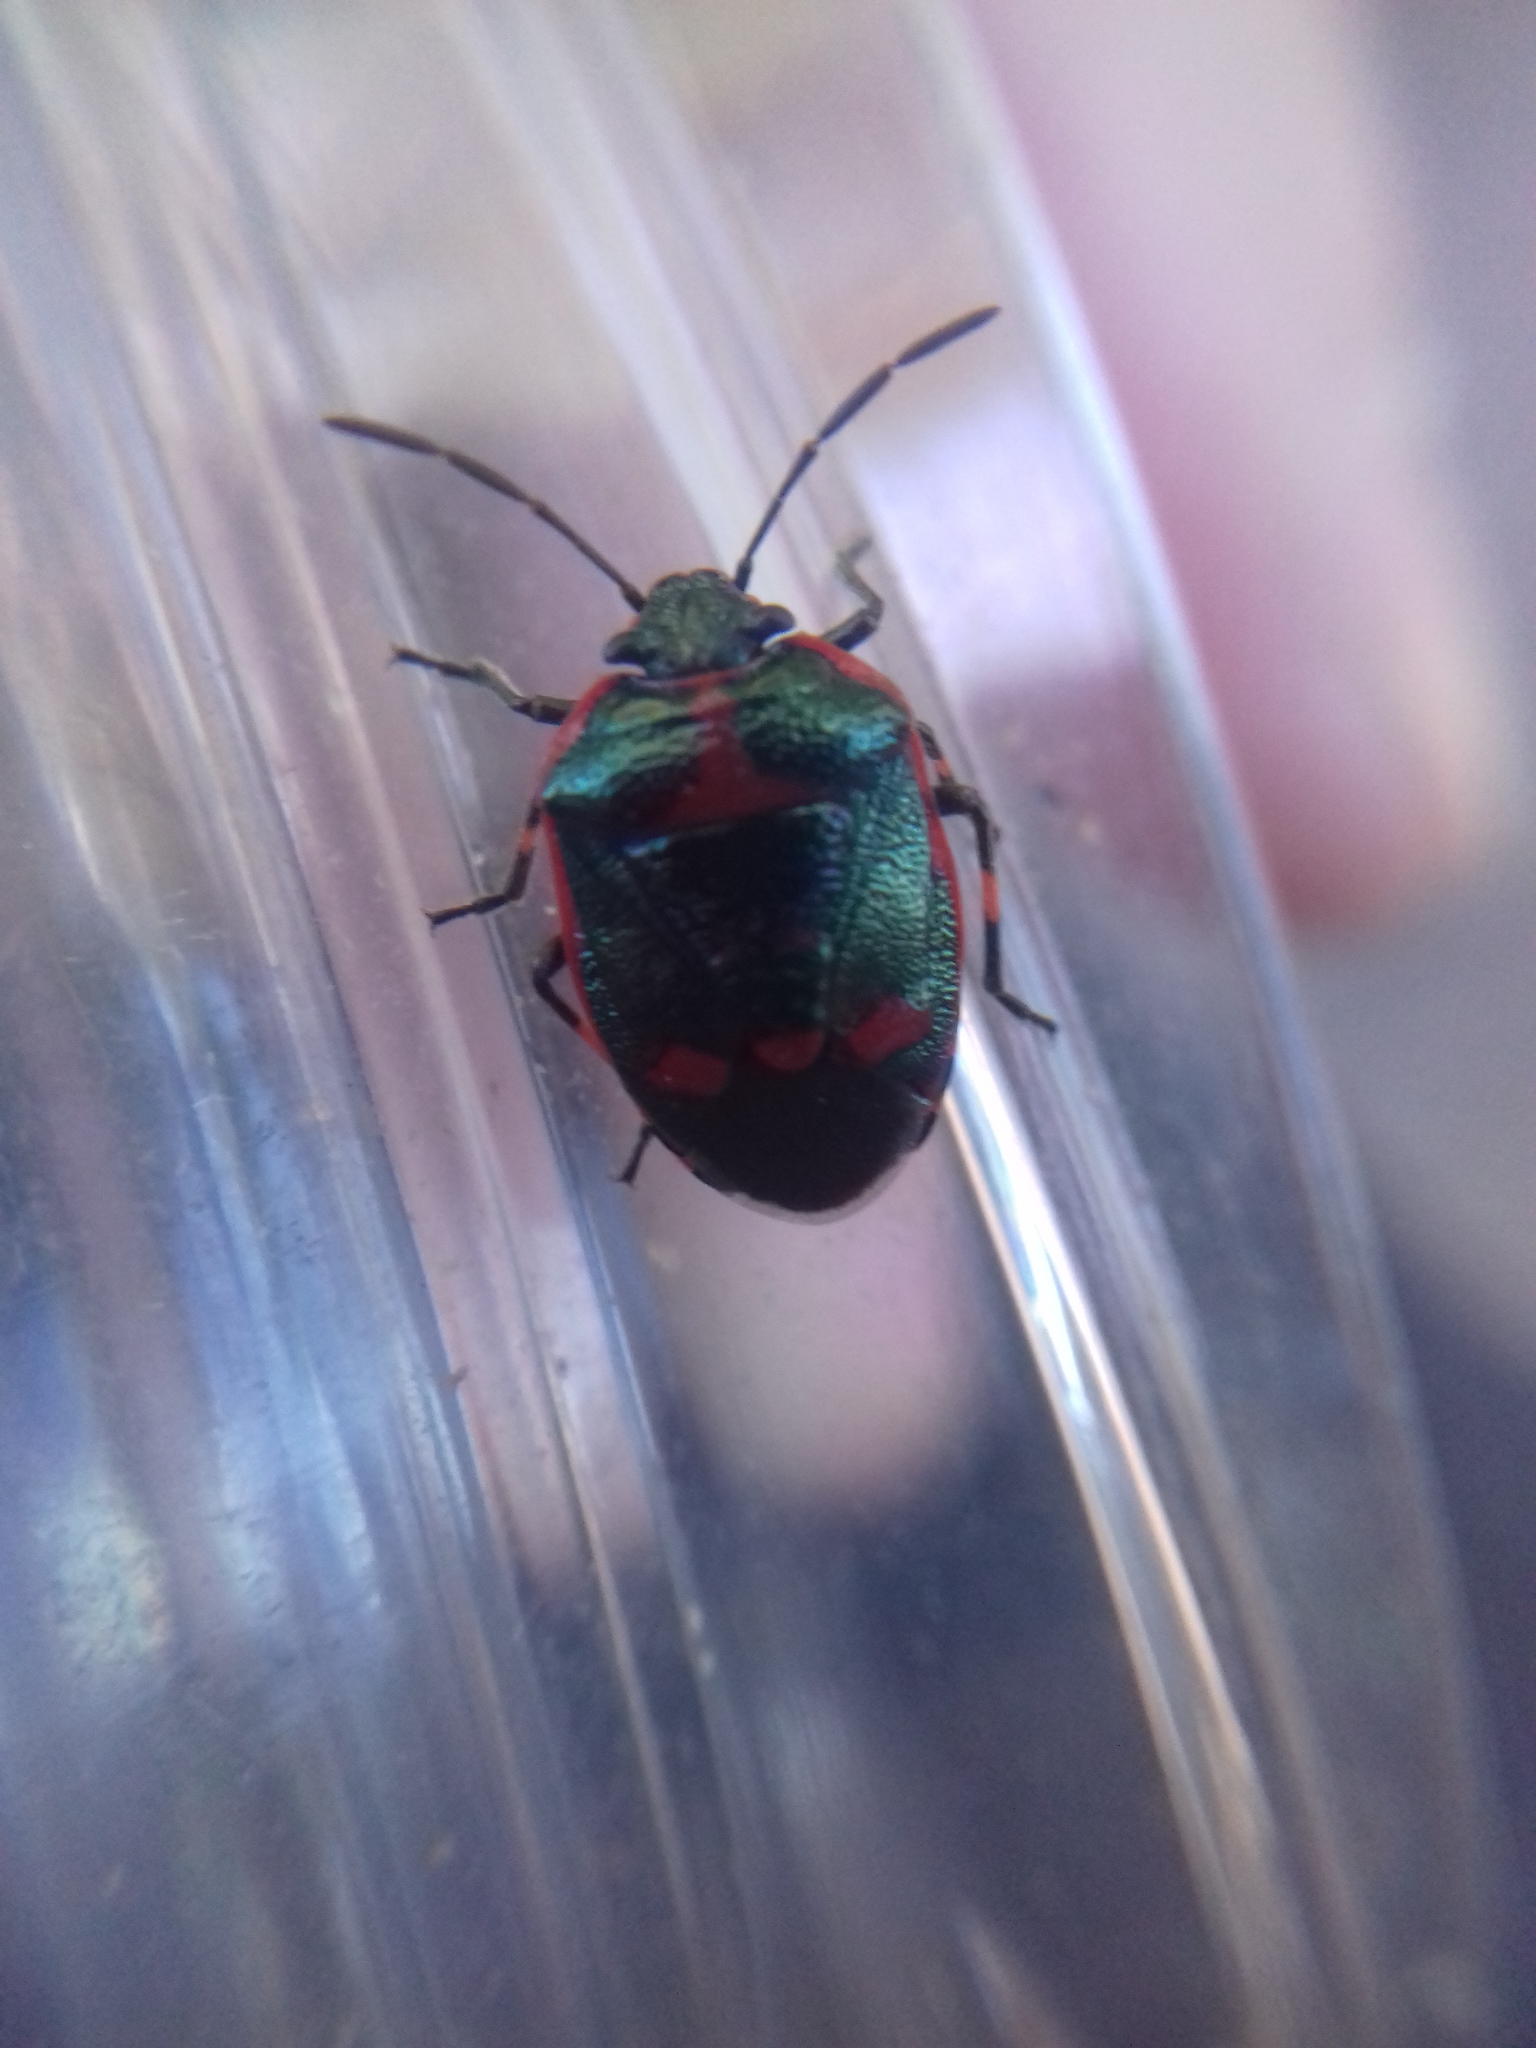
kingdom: Animalia
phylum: Arthropoda
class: Insecta
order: Hemiptera
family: Pentatomidae
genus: Eurydema
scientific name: Eurydema oleracea
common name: Cabbage bug
